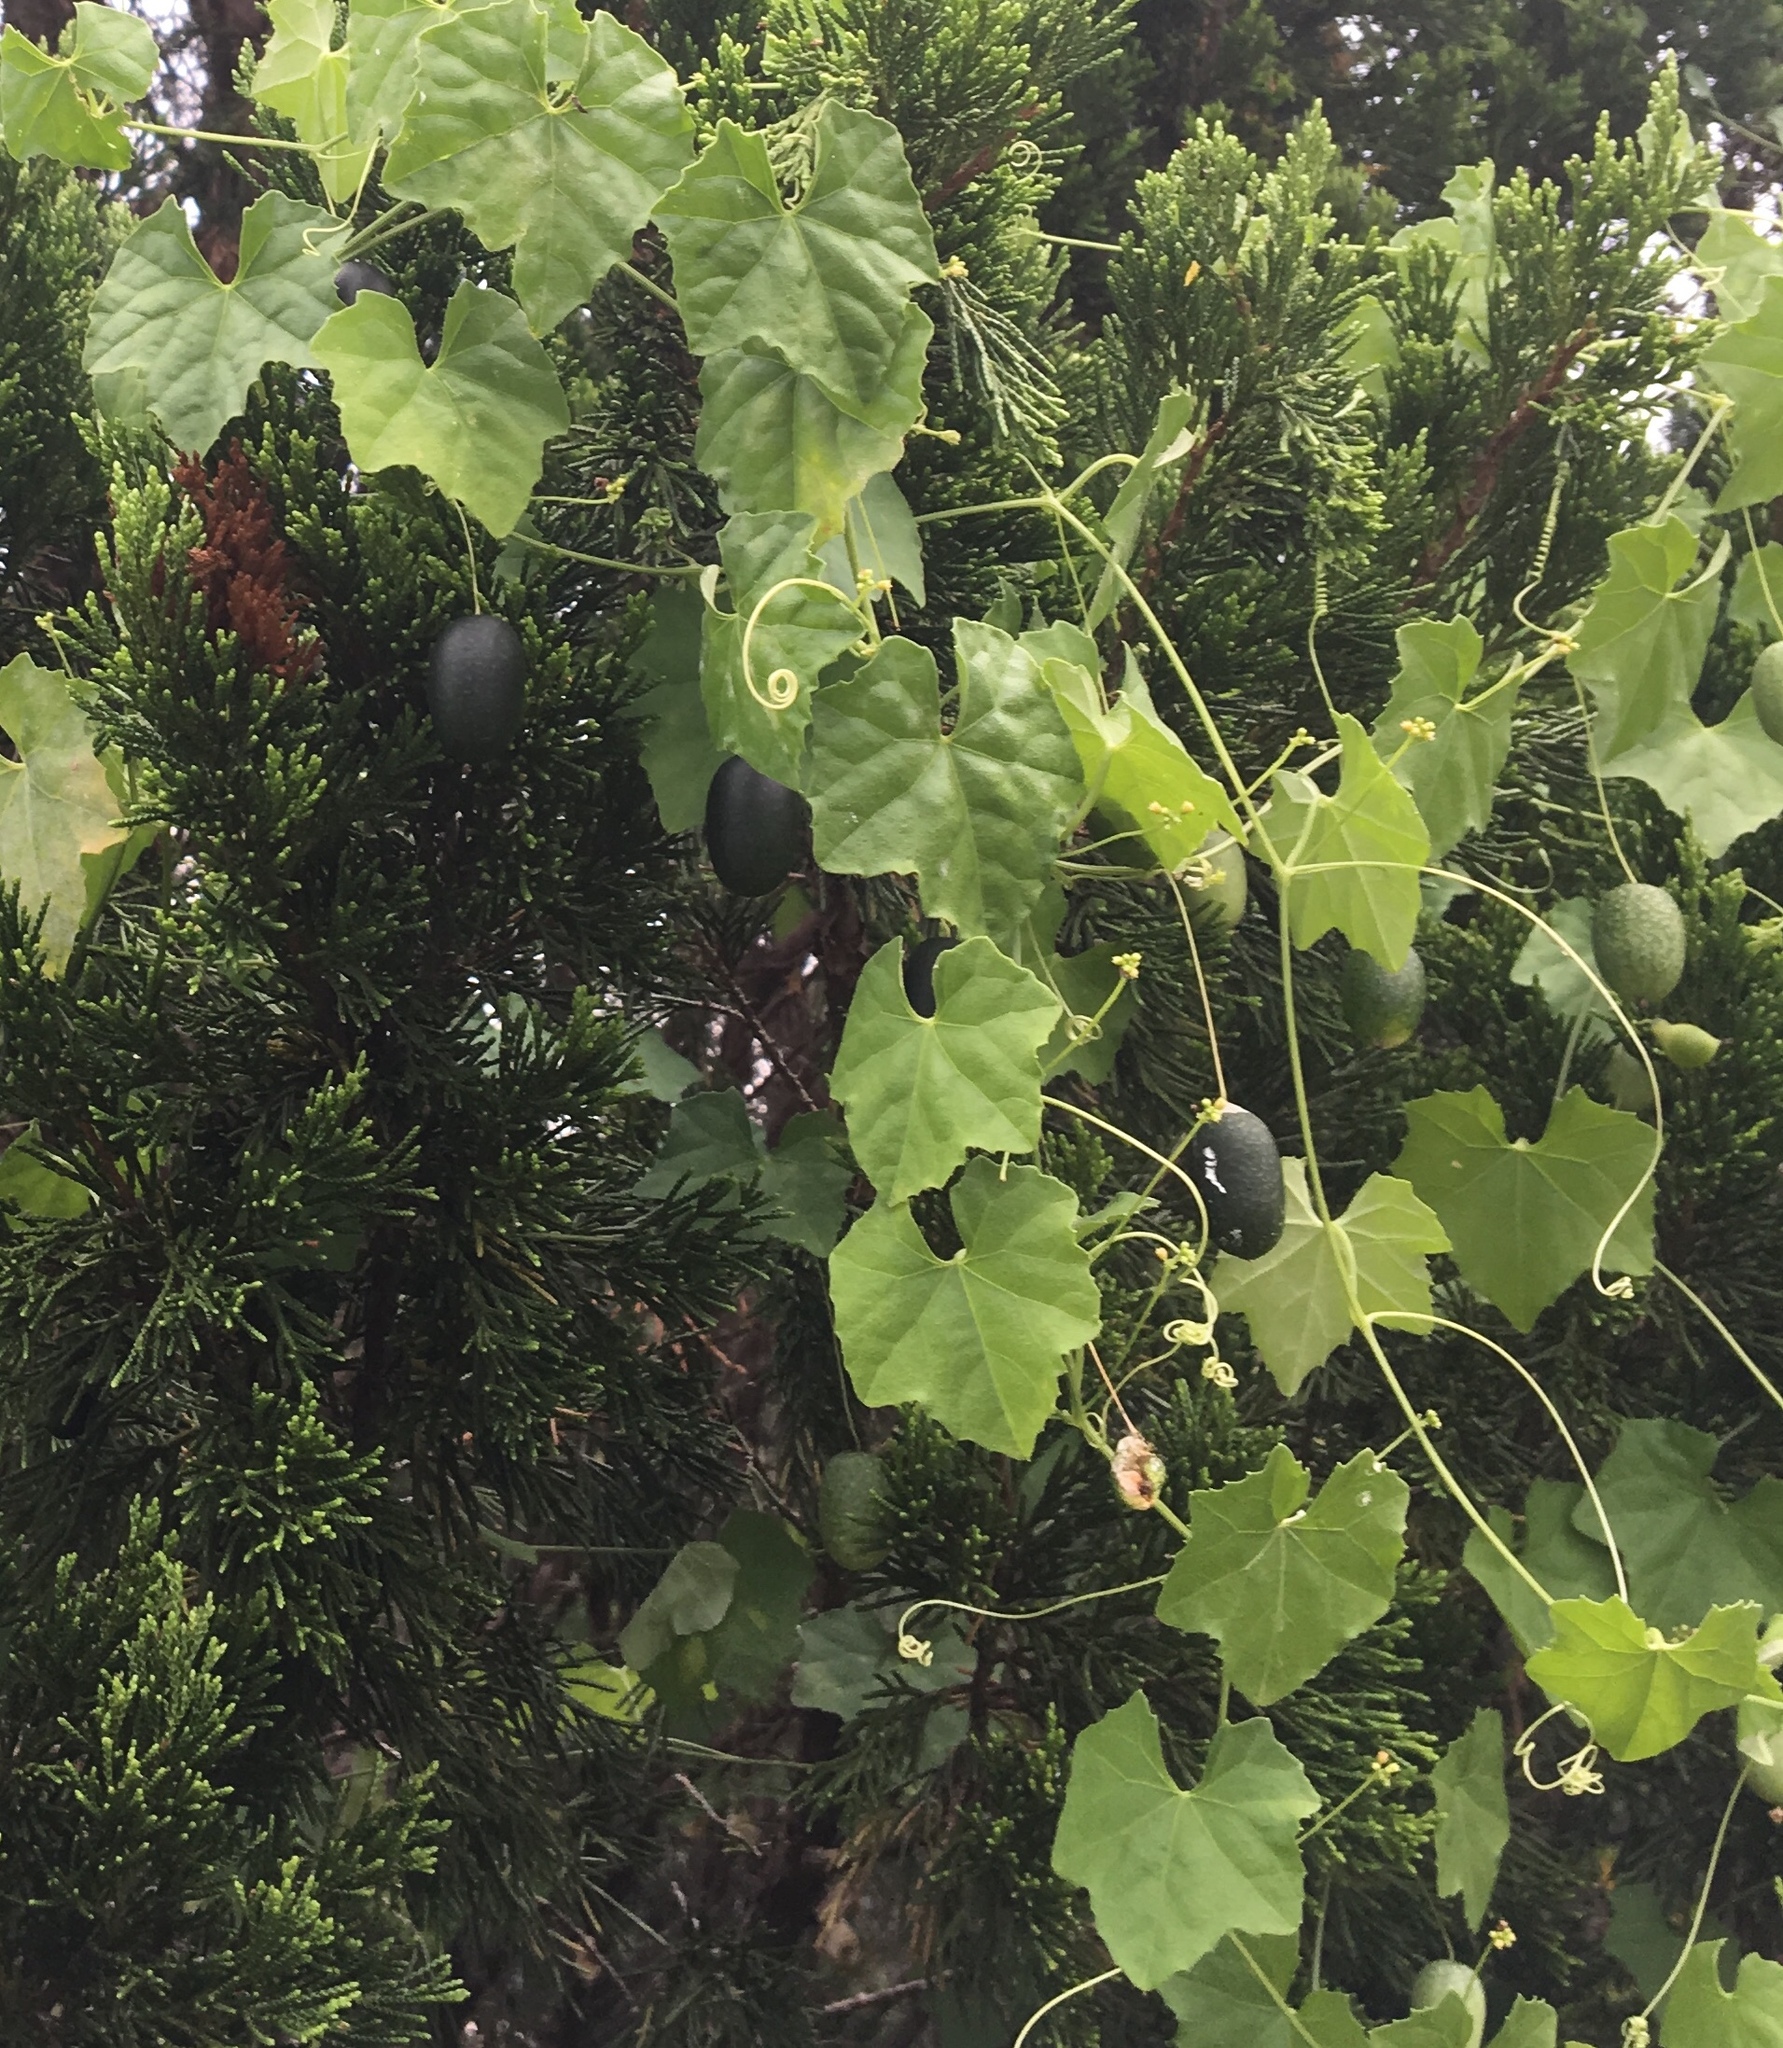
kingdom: Plantae
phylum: Tracheophyta
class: Magnoliopsida
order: Cucurbitales
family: Cucurbitaceae
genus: Melothria
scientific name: Melothria pendula
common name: Creeping-cucumber
